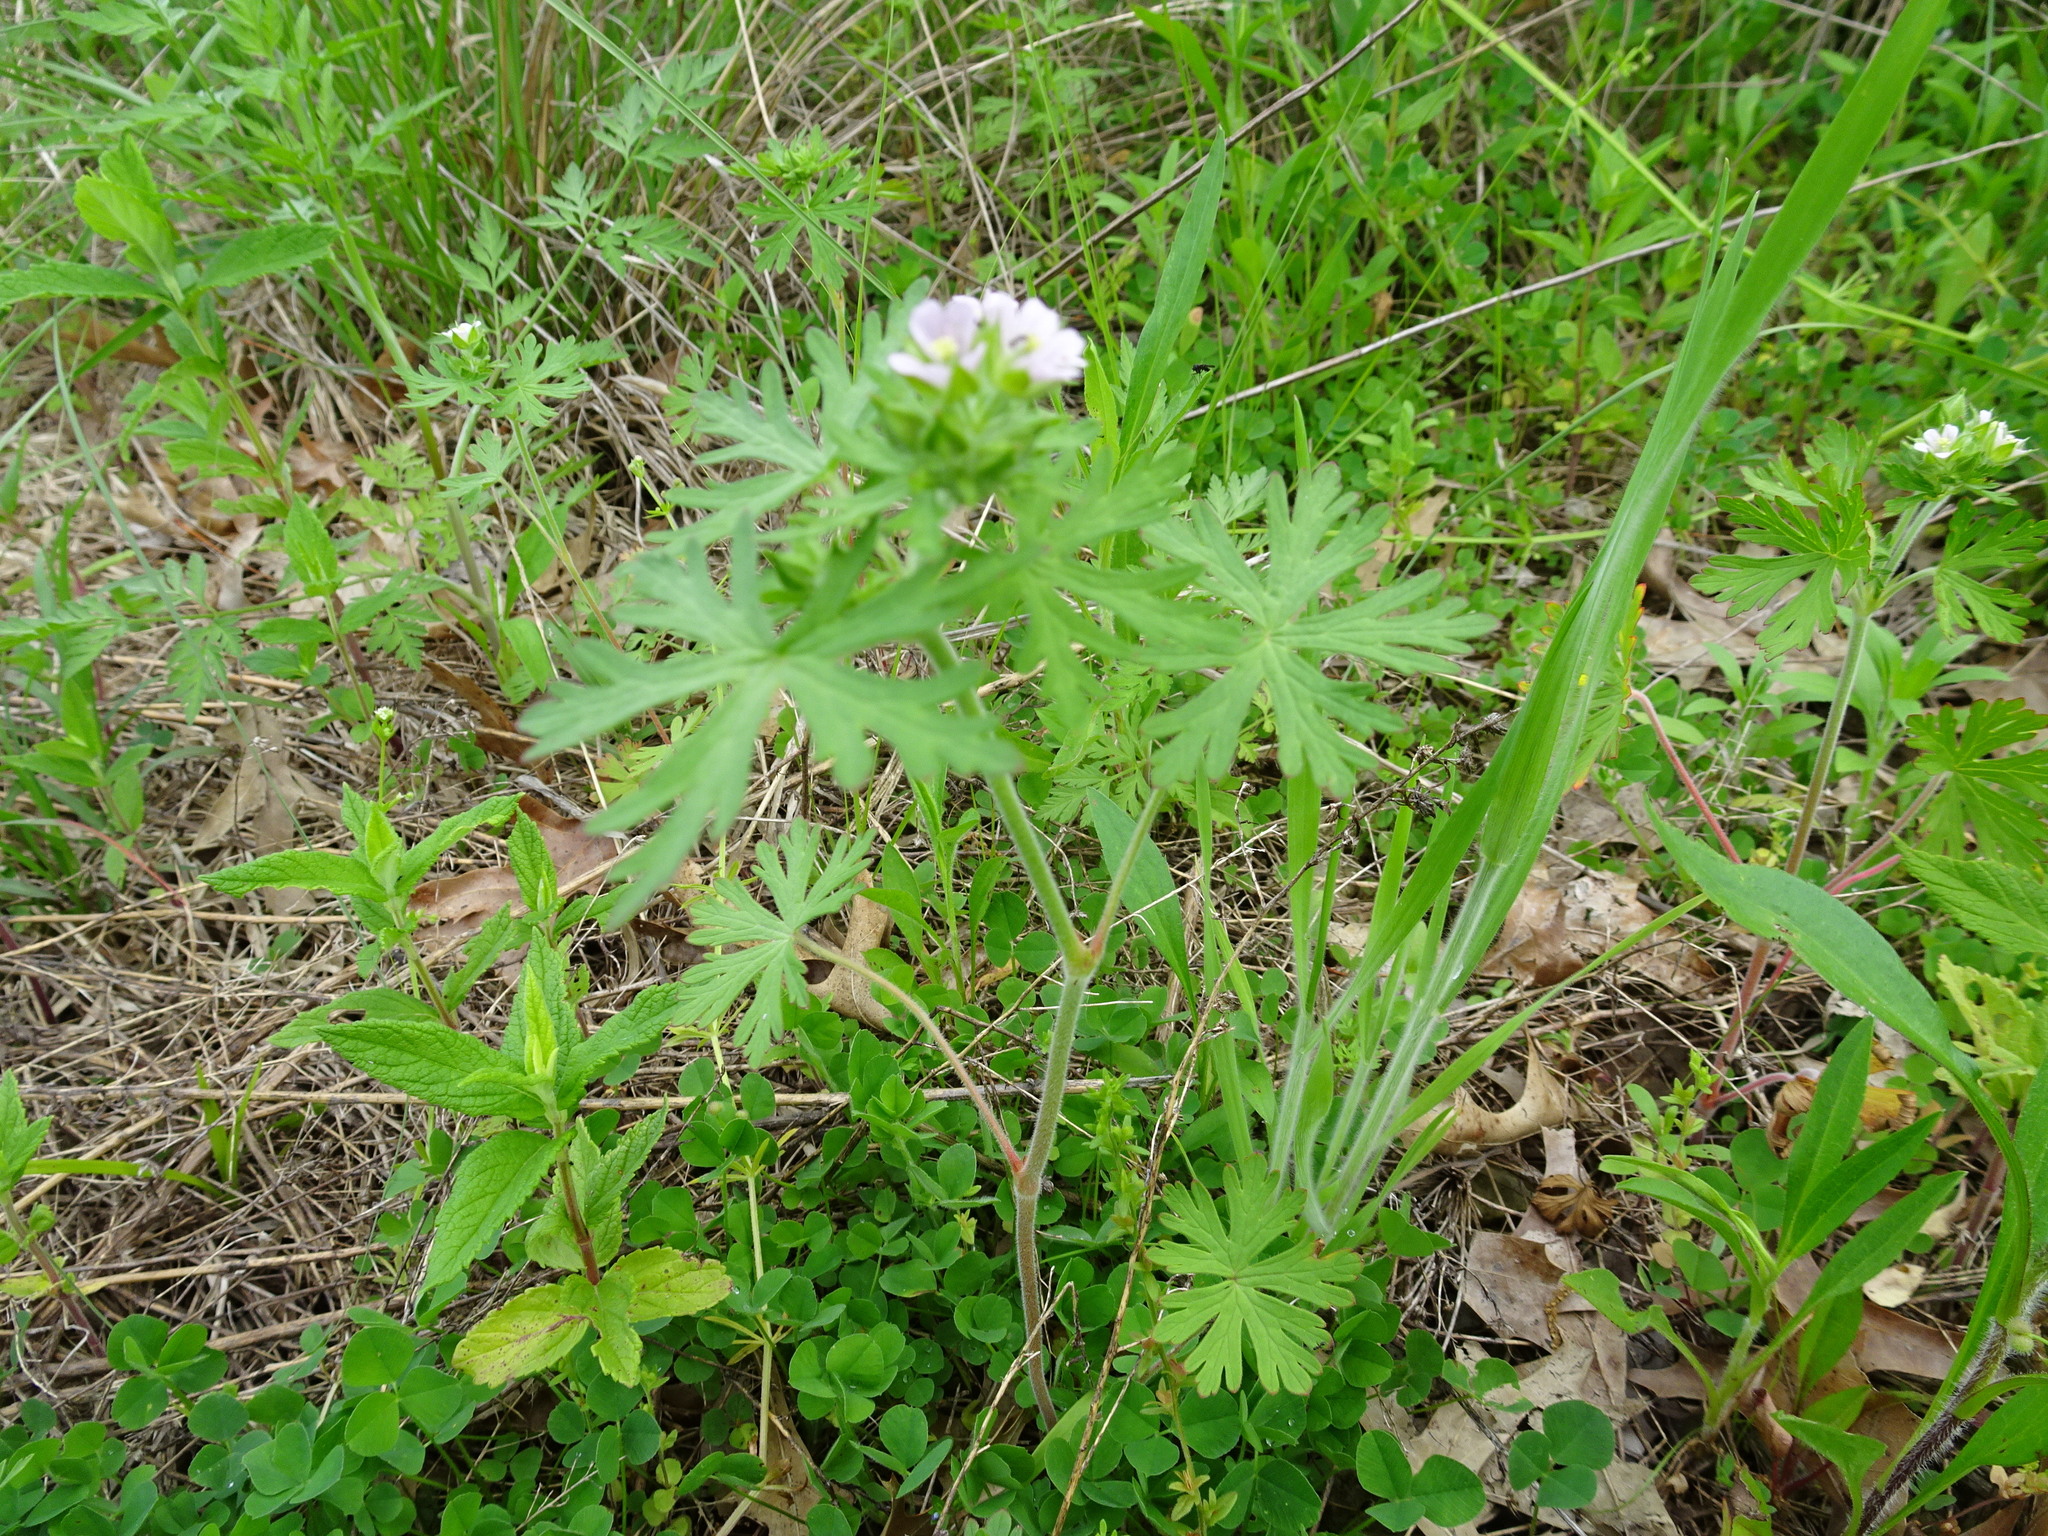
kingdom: Plantae
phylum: Tracheophyta
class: Magnoliopsida
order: Geraniales
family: Geraniaceae
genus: Geranium
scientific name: Geranium carolinianum
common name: Carolina crane's-bill
